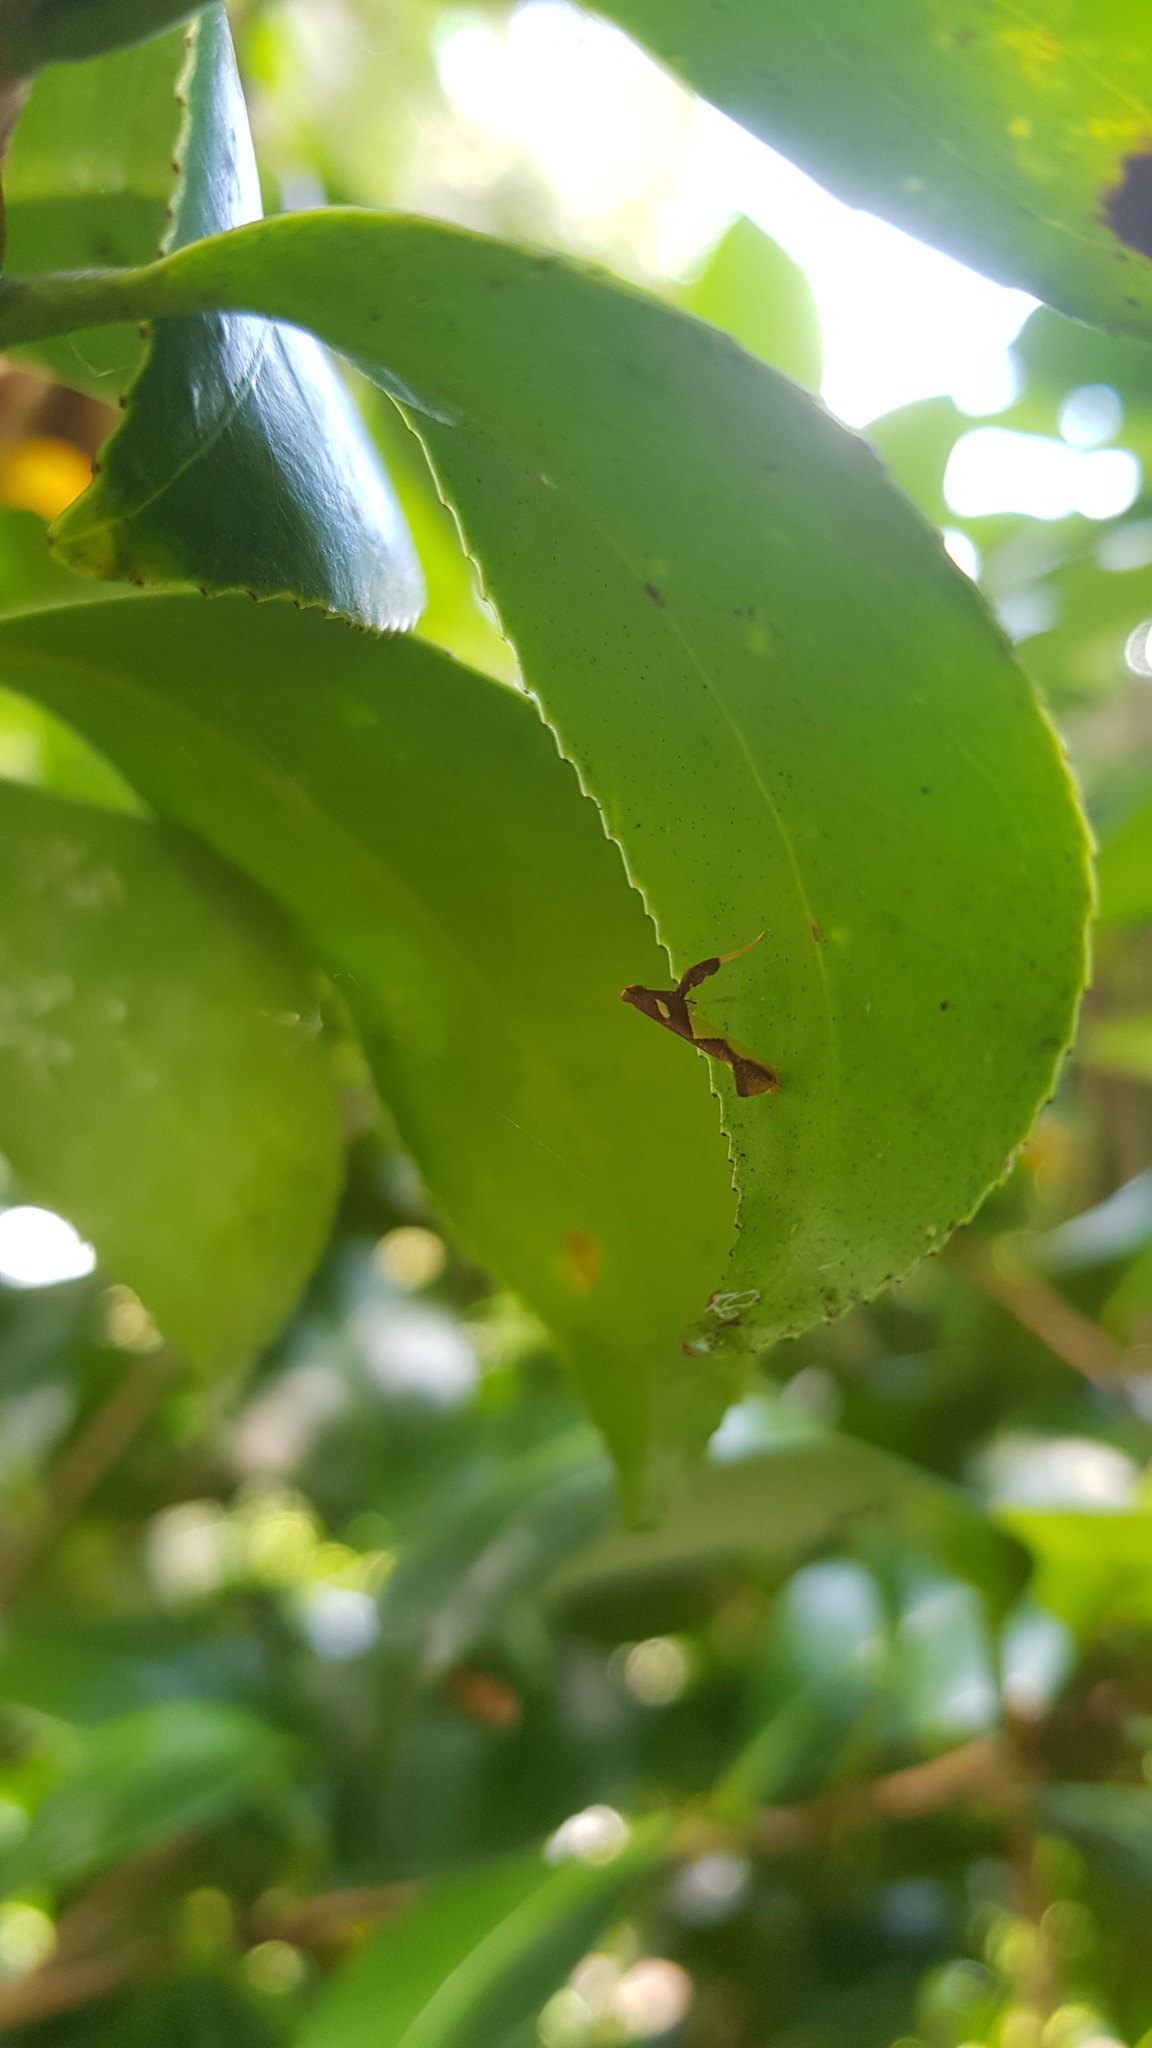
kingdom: Animalia
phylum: Arthropoda
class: Insecta
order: Lepidoptera
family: Gracillariidae
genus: Caloptilia
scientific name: Caloptilia xanthopharella
